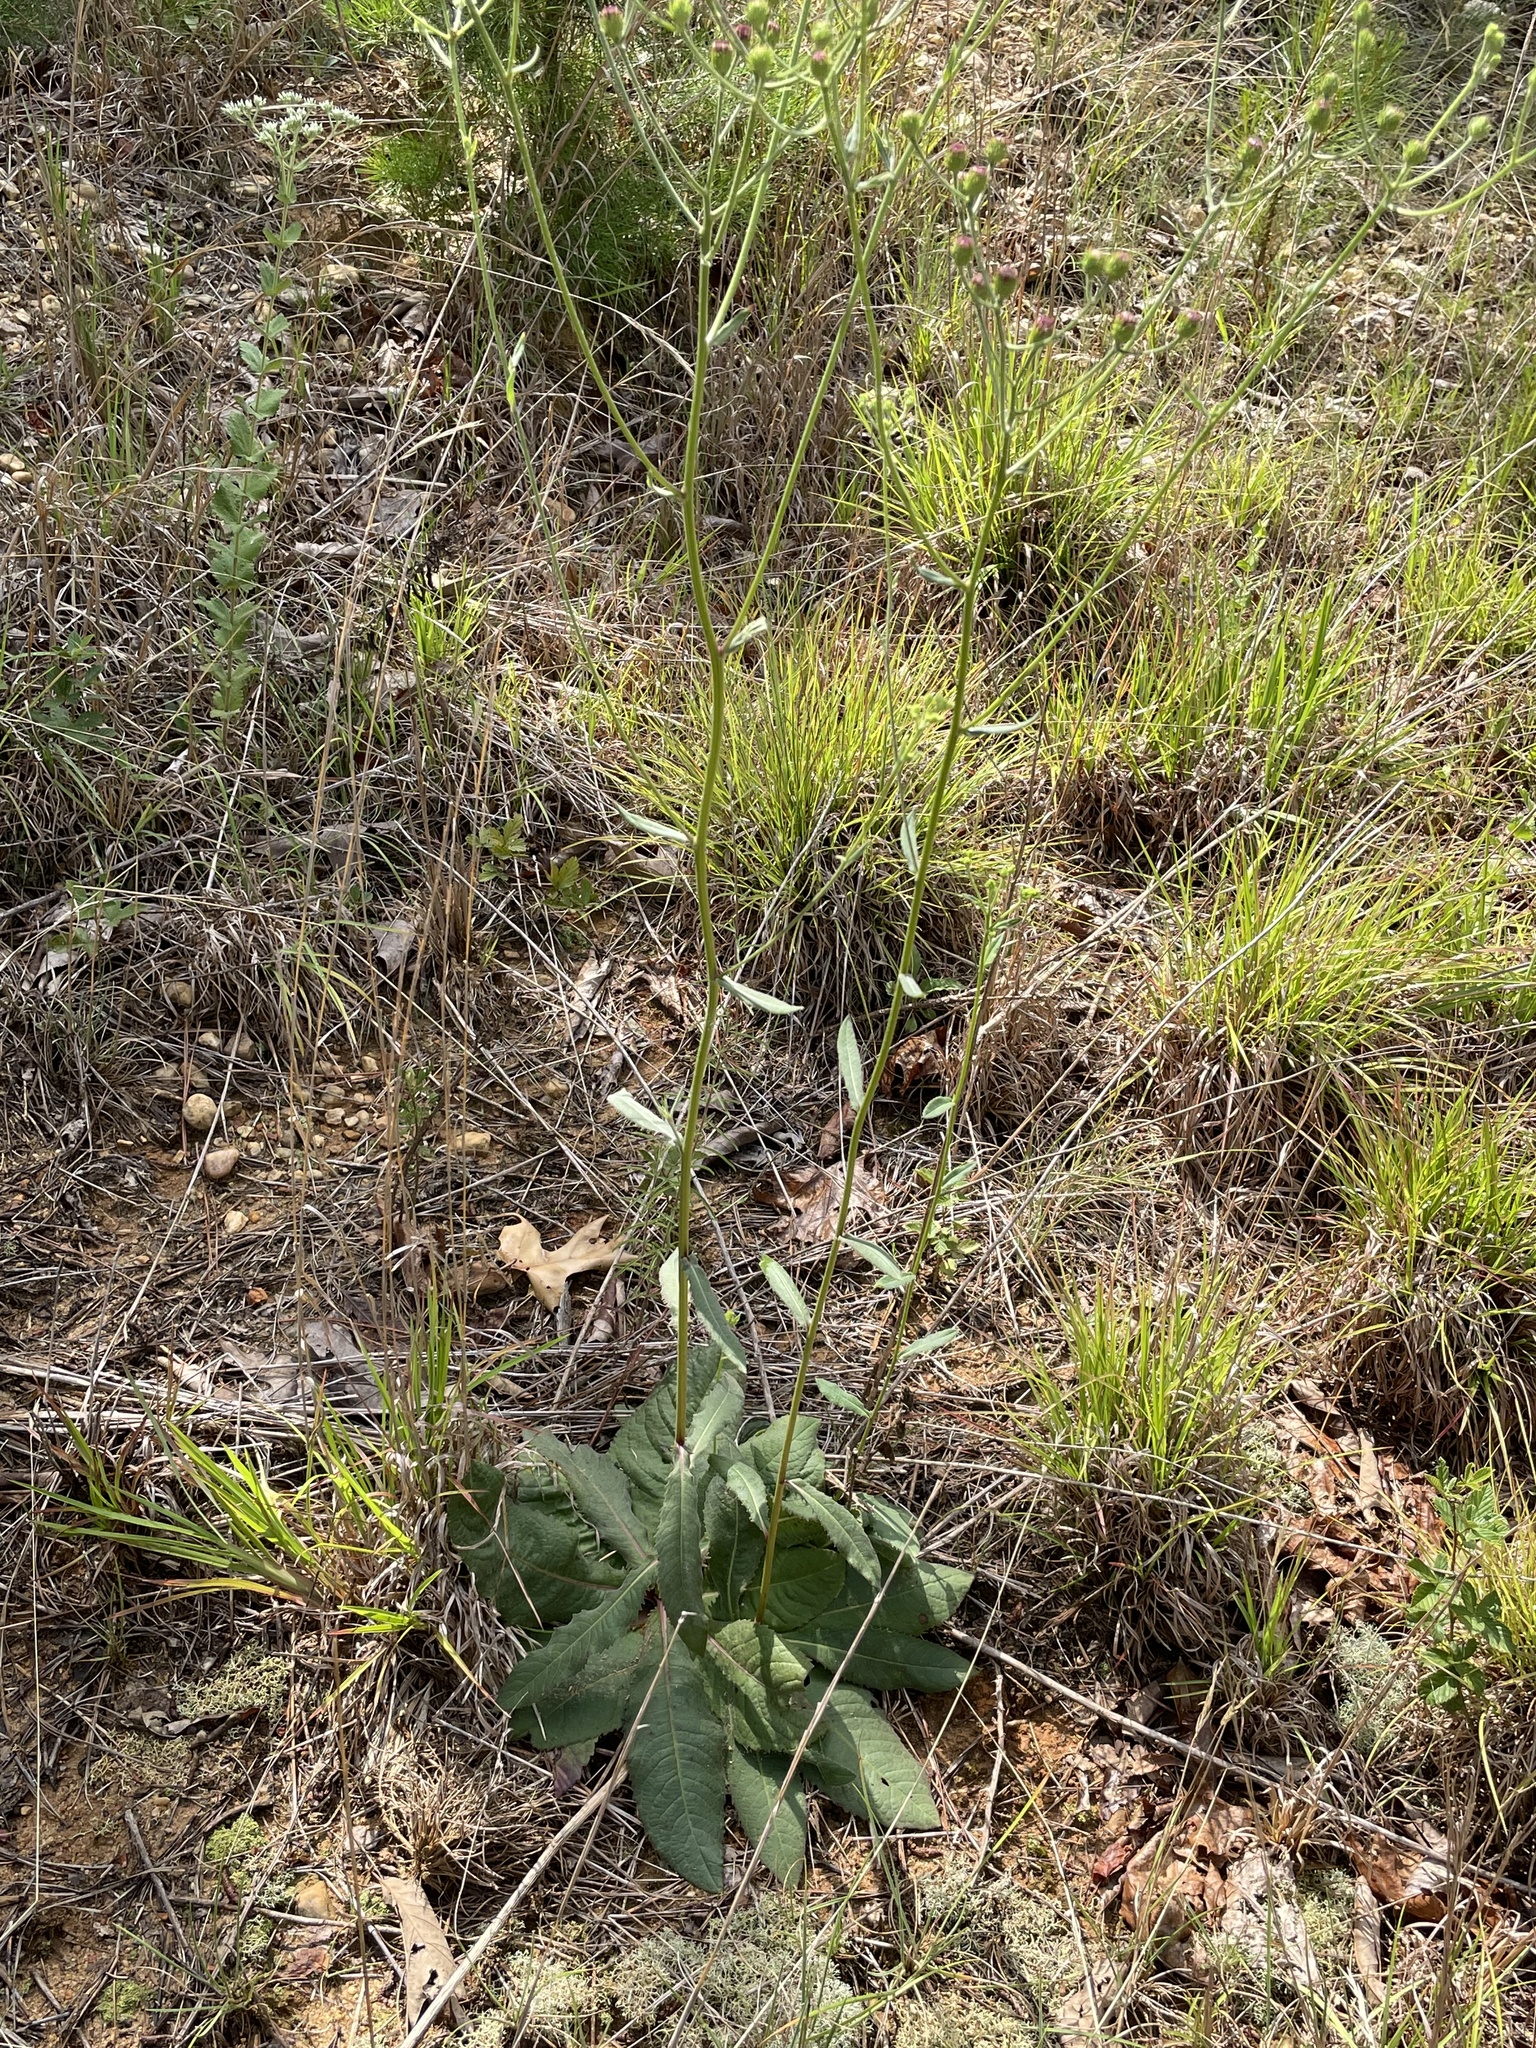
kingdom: Plantae
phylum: Tracheophyta
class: Magnoliopsida
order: Asterales
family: Asteraceae
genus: Vernonia
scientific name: Vernonia acaulis
